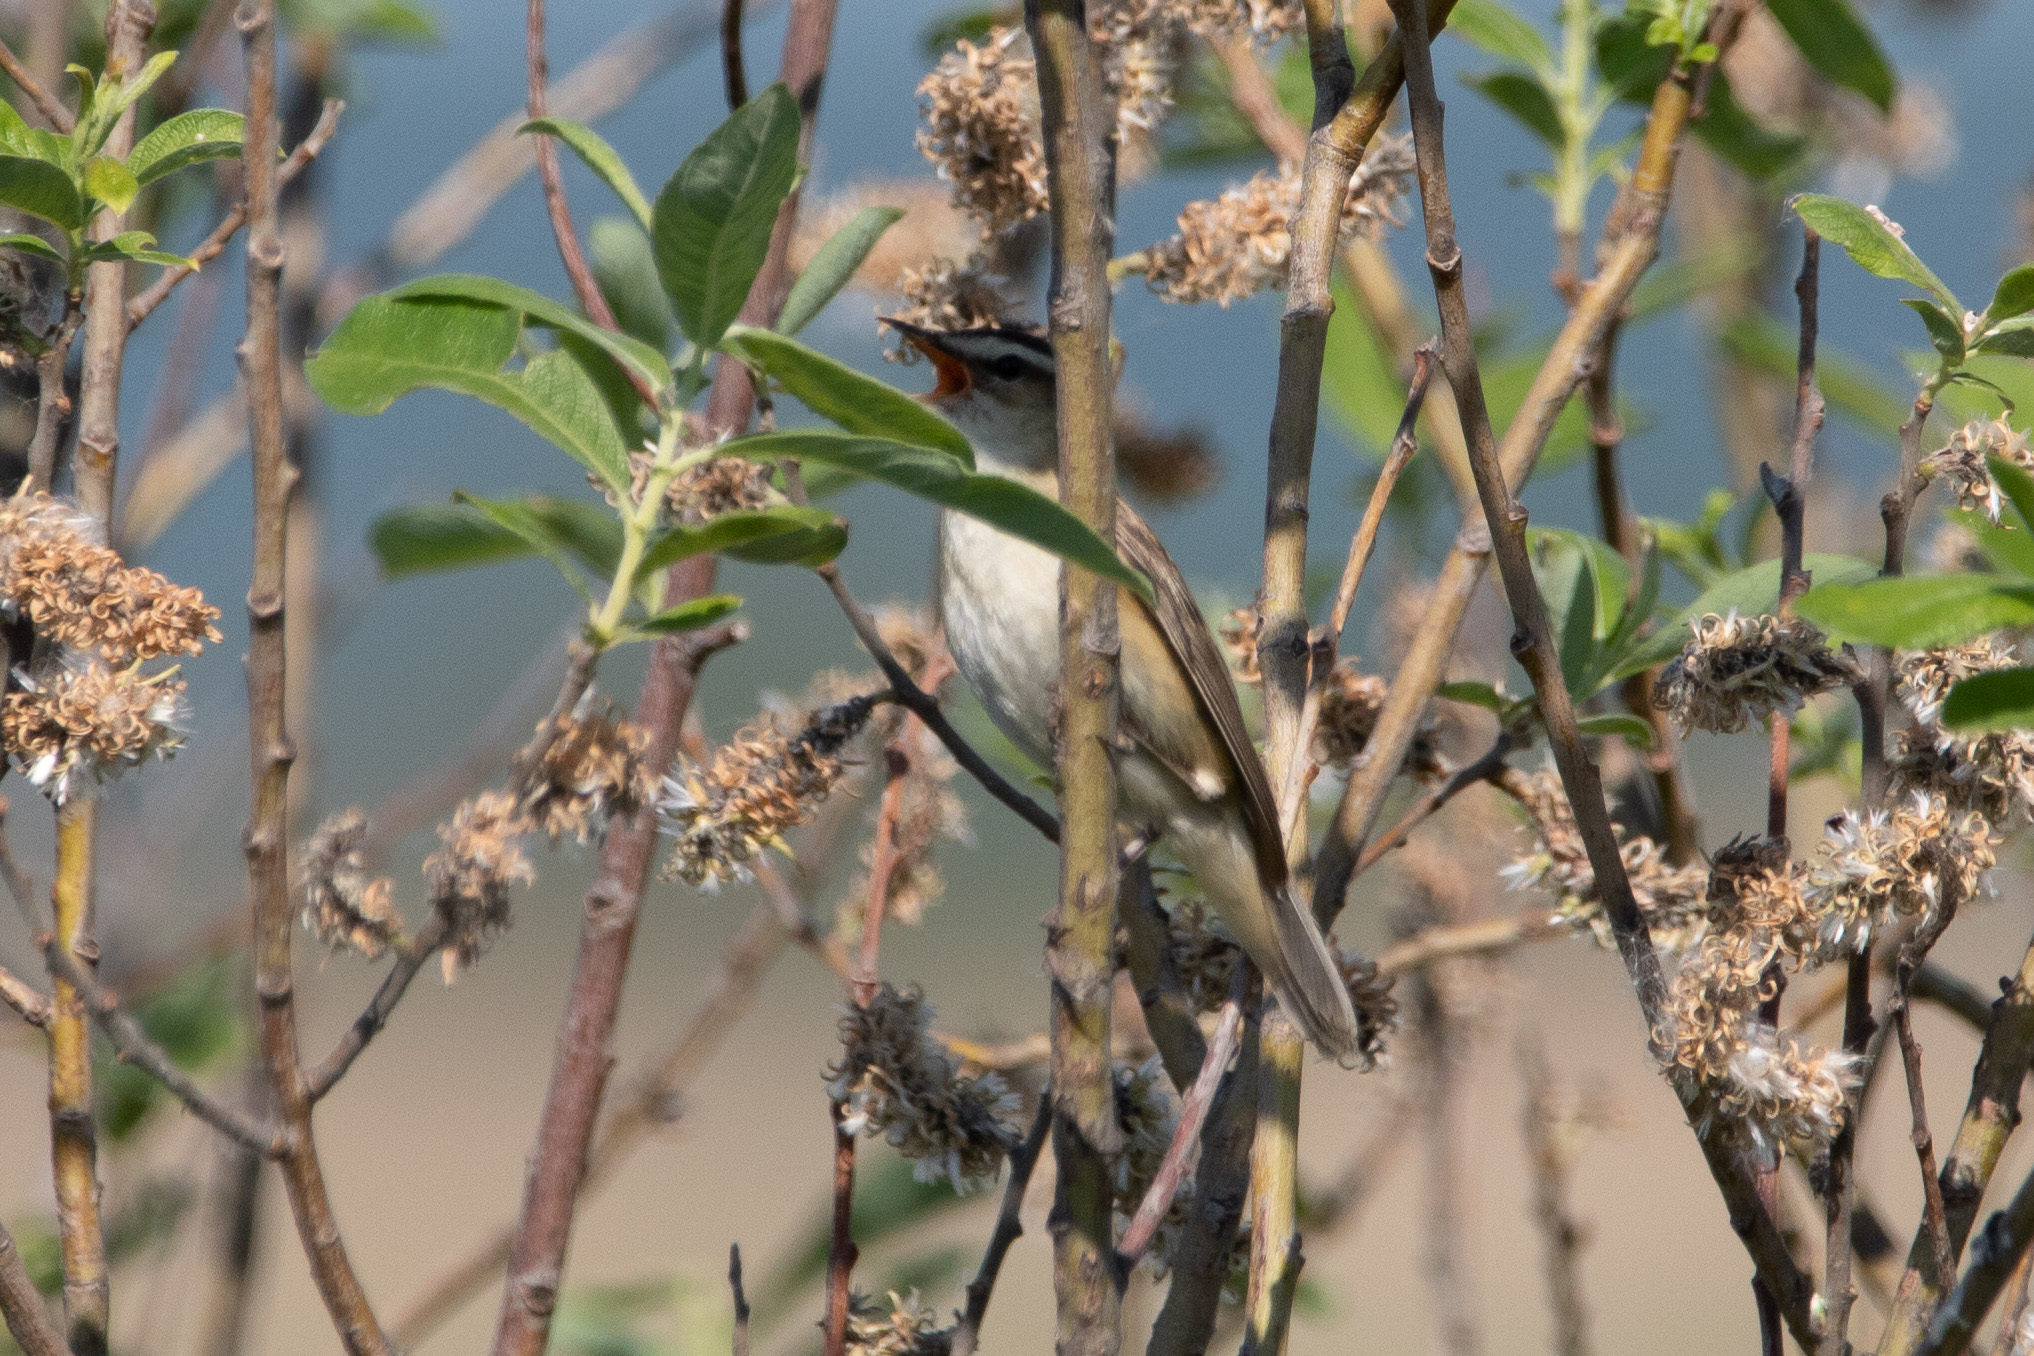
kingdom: Animalia
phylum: Chordata
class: Aves
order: Passeriformes
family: Acrocephalidae
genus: Acrocephalus
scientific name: Acrocephalus schoenobaenus
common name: Sedge warbler
